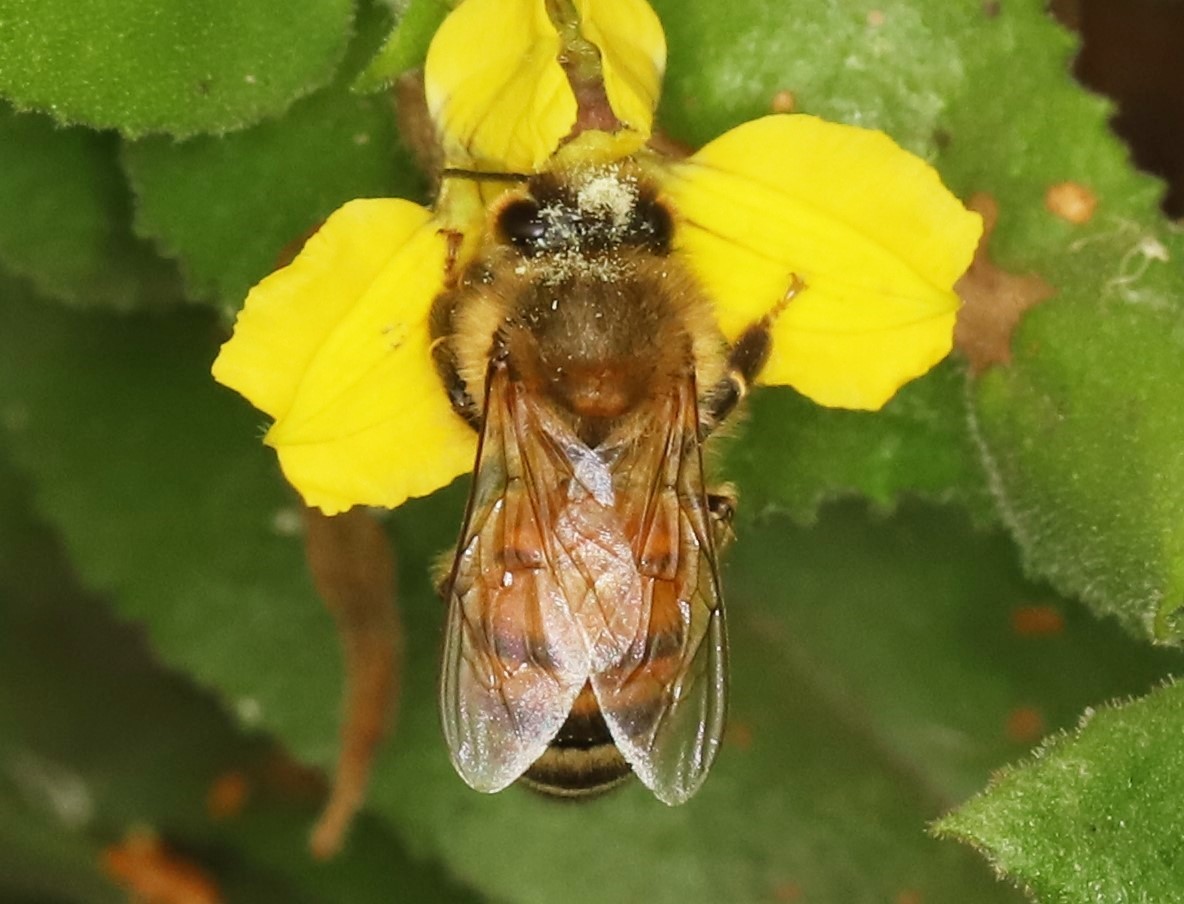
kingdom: Animalia
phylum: Arthropoda
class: Insecta
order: Hymenoptera
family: Apidae
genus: Apis
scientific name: Apis mellifera
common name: Honey bee
